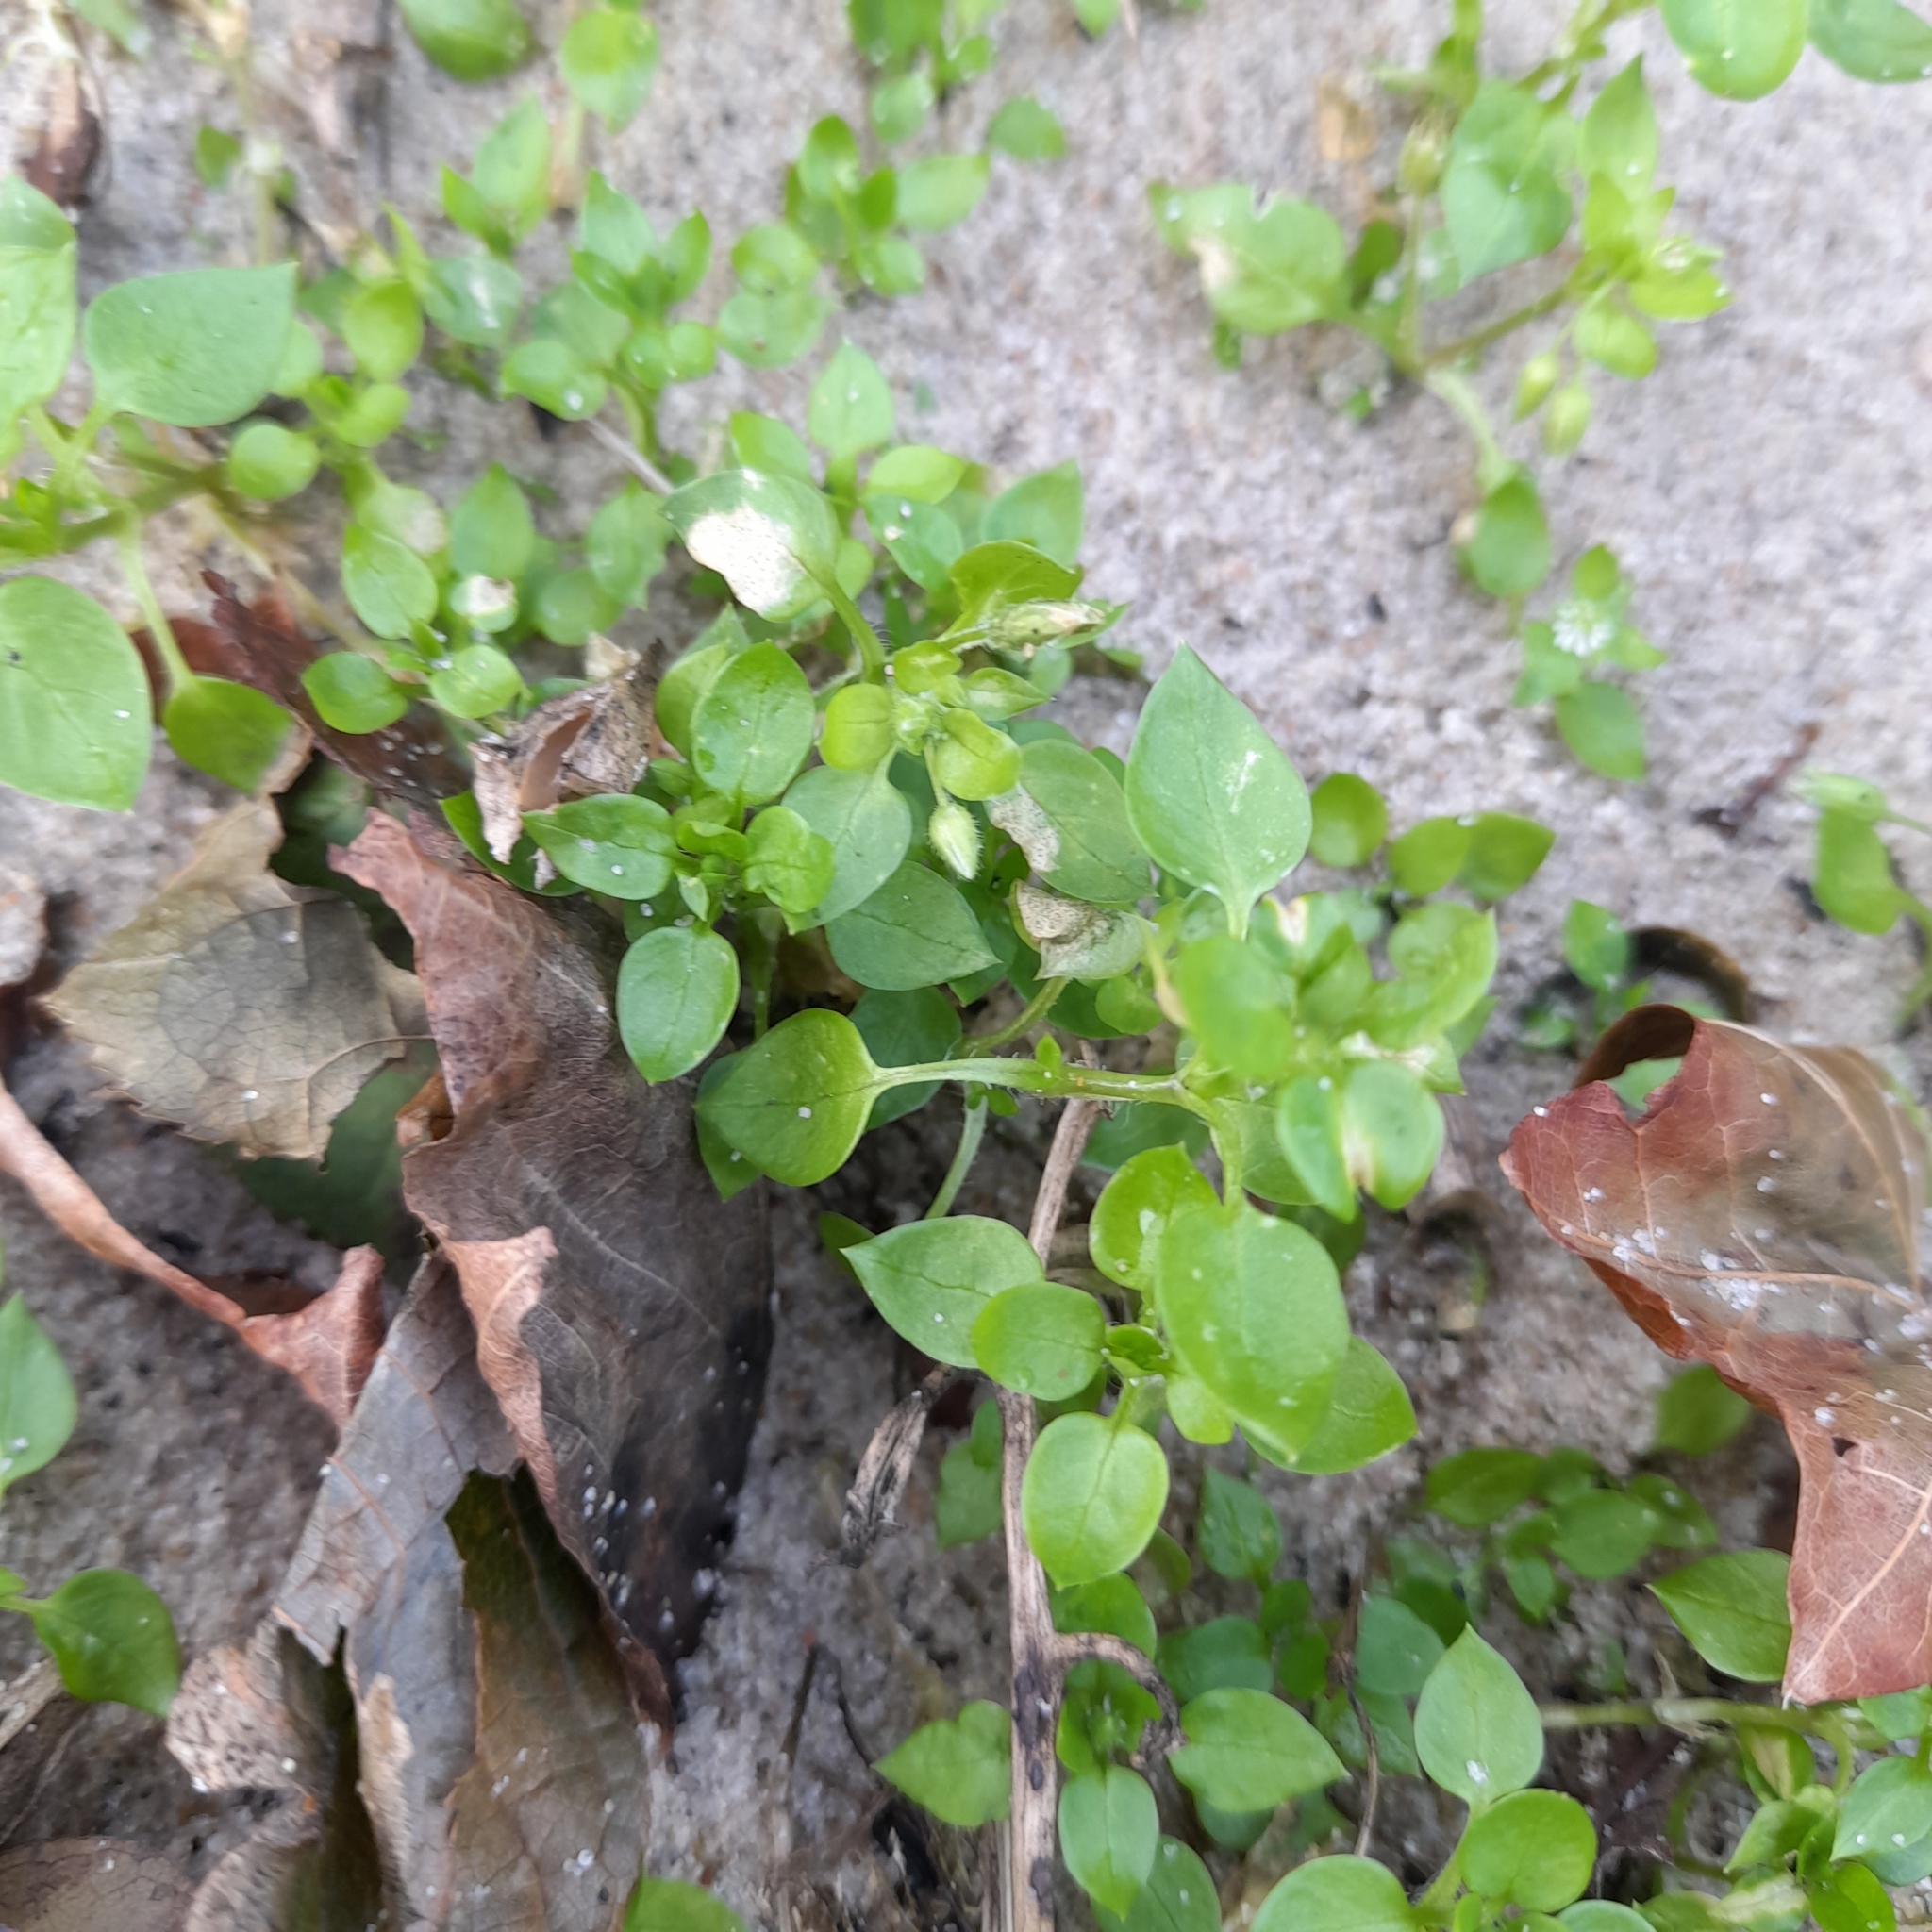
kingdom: Plantae
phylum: Tracheophyta
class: Magnoliopsida
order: Caryophyllales
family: Caryophyllaceae
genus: Stellaria
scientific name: Stellaria media
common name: Common chickweed
